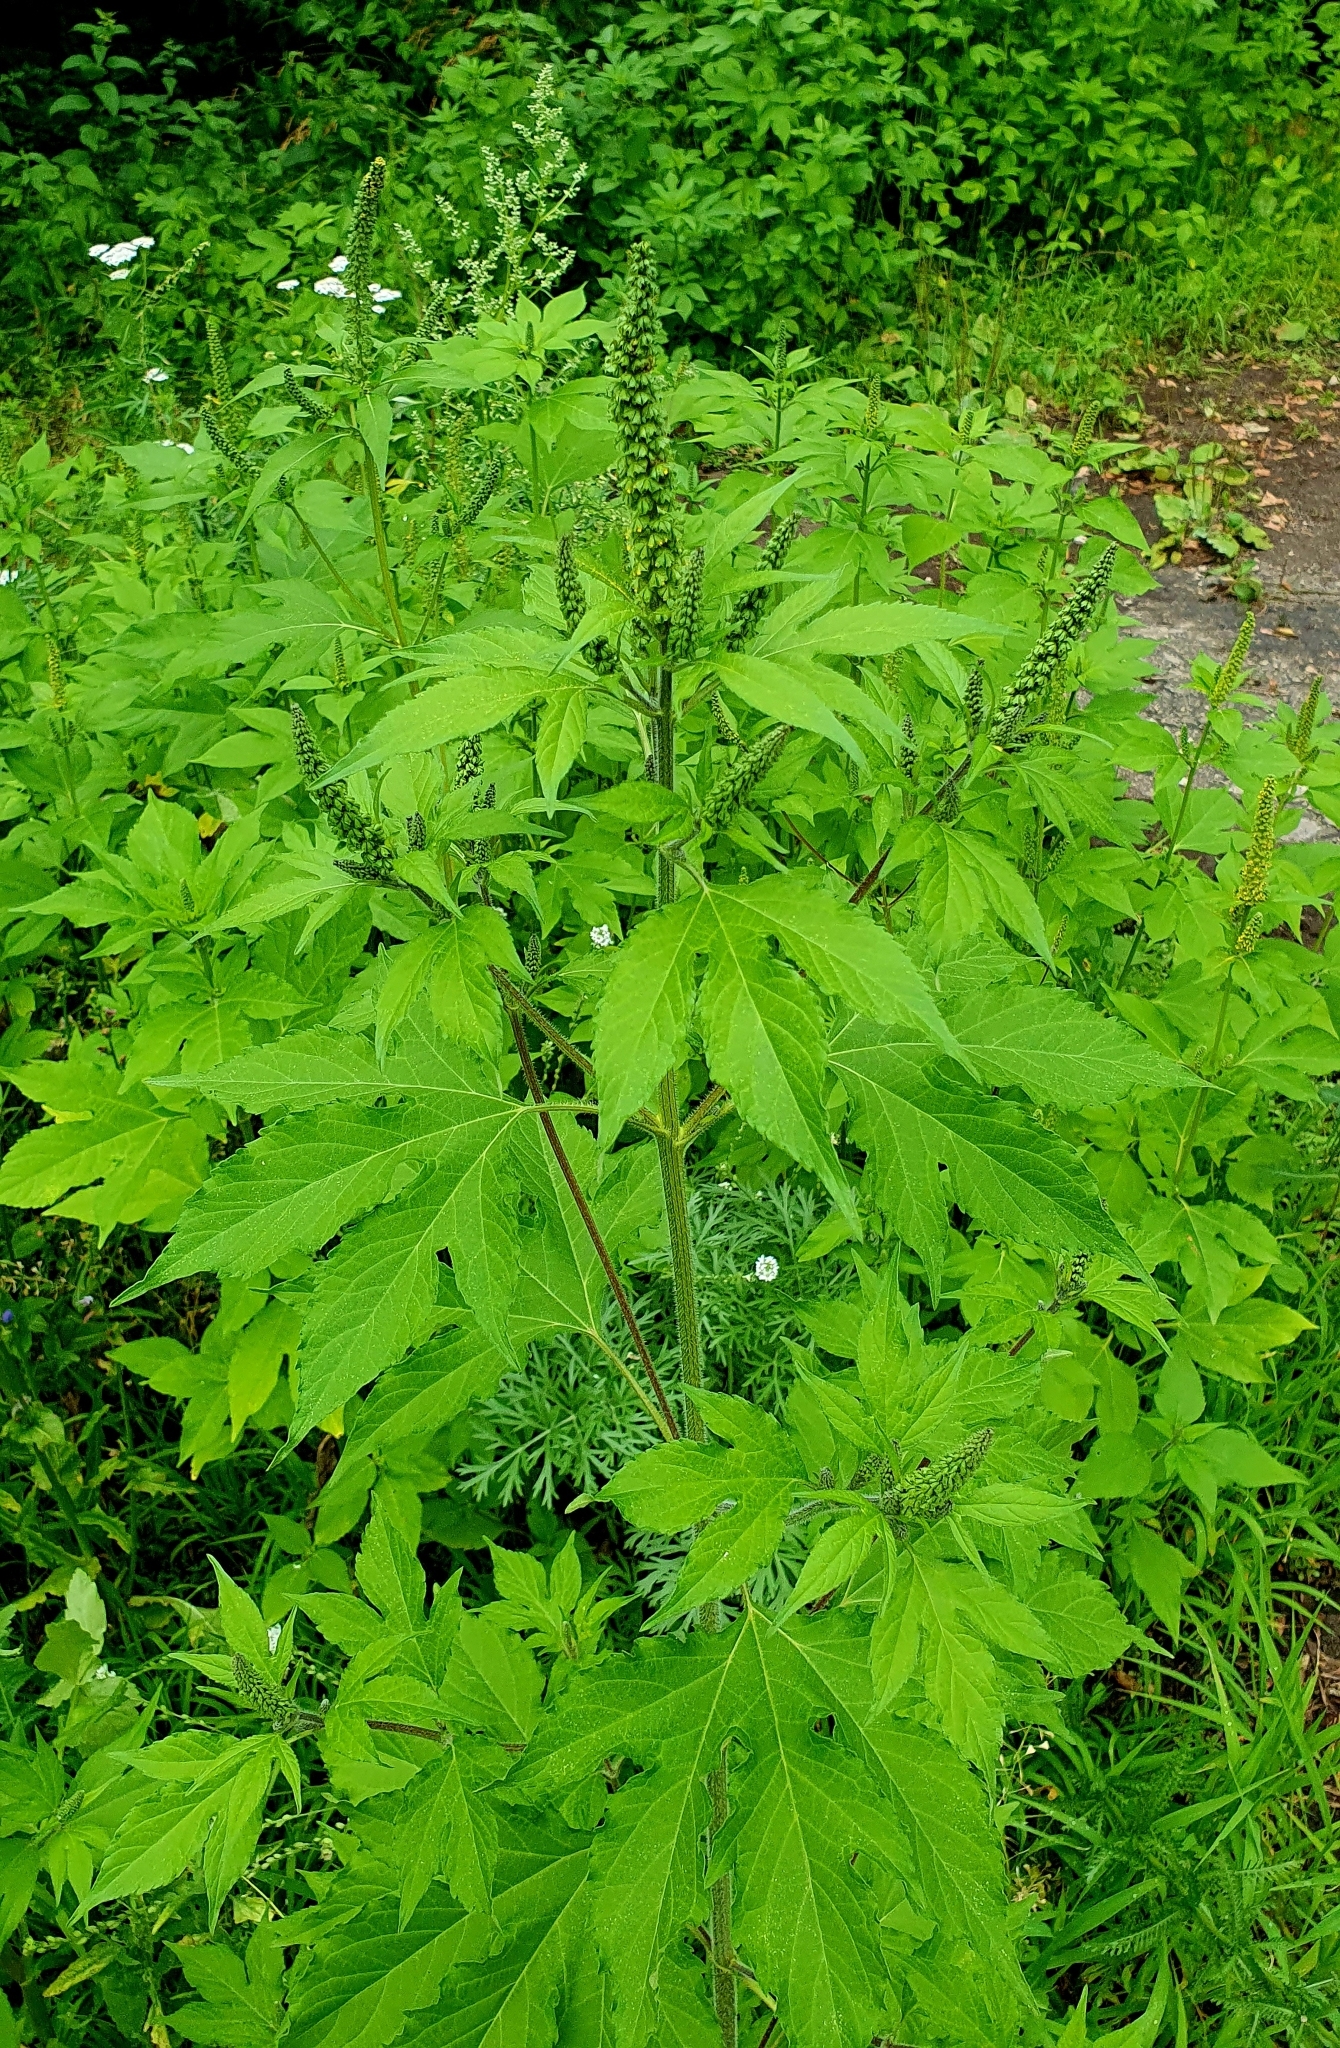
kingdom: Plantae
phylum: Tracheophyta
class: Magnoliopsida
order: Asterales
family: Asteraceae
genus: Ambrosia
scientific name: Ambrosia trifida
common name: Giant ragweed
